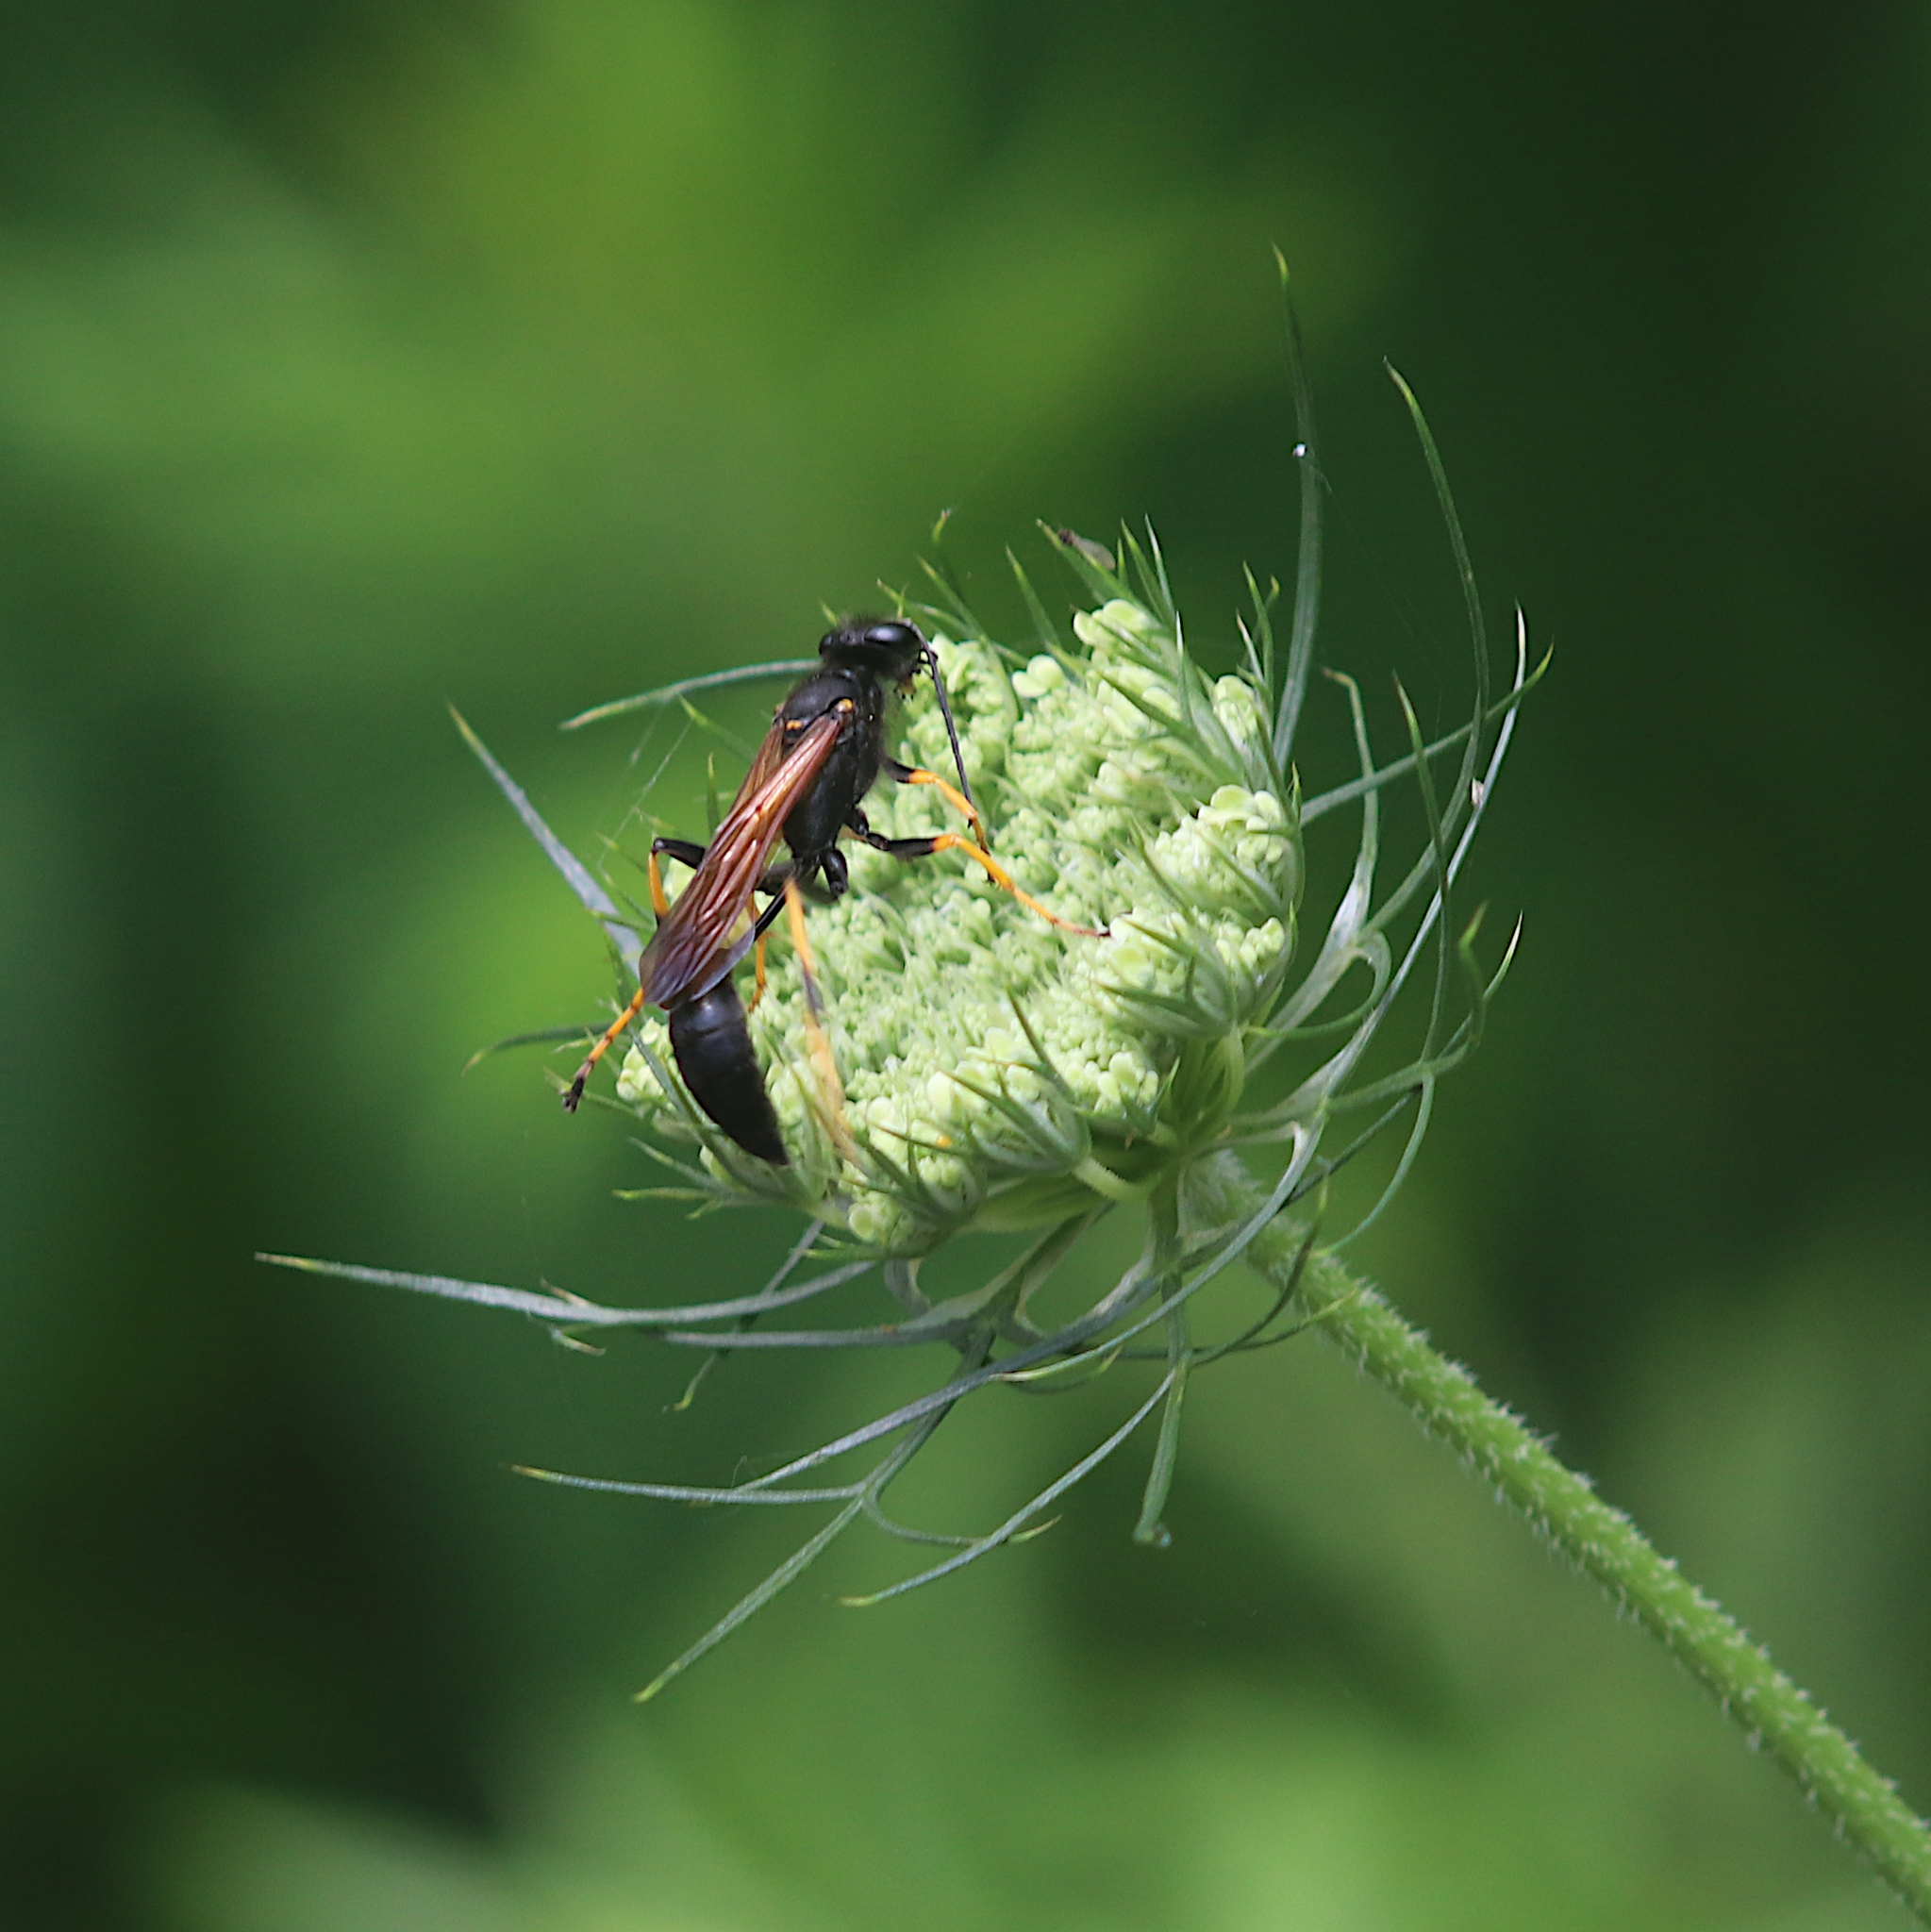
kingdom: Animalia
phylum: Arthropoda
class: Insecta
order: Hymenoptera
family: Sphecidae
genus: Sceliphron
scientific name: Sceliphron caementarium
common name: Mud dauber
